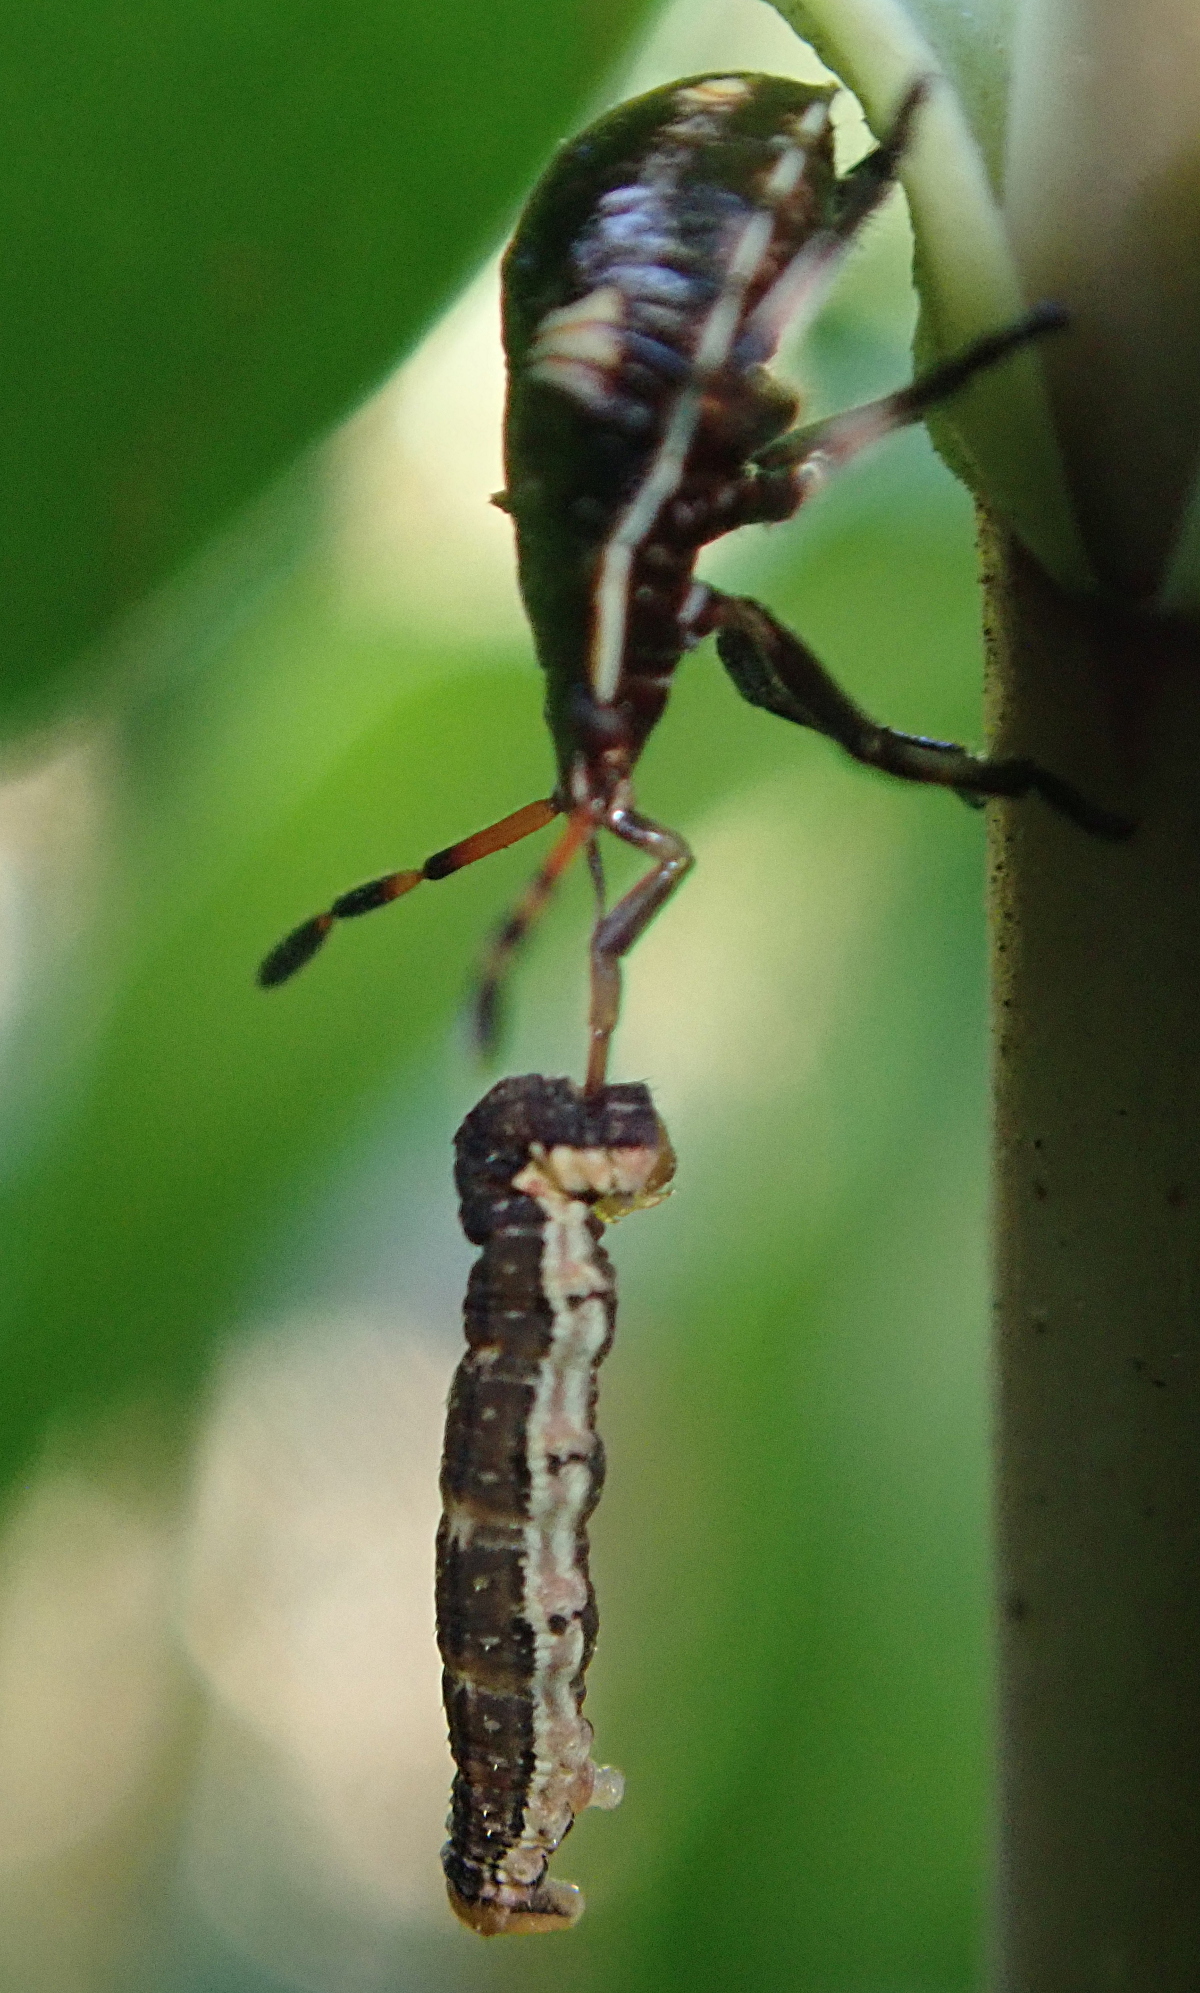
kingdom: Animalia
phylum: Arthropoda
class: Insecta
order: Hemiptera
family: Pentatomidae
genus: Cermatulus
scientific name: Cermatulus nasalis
